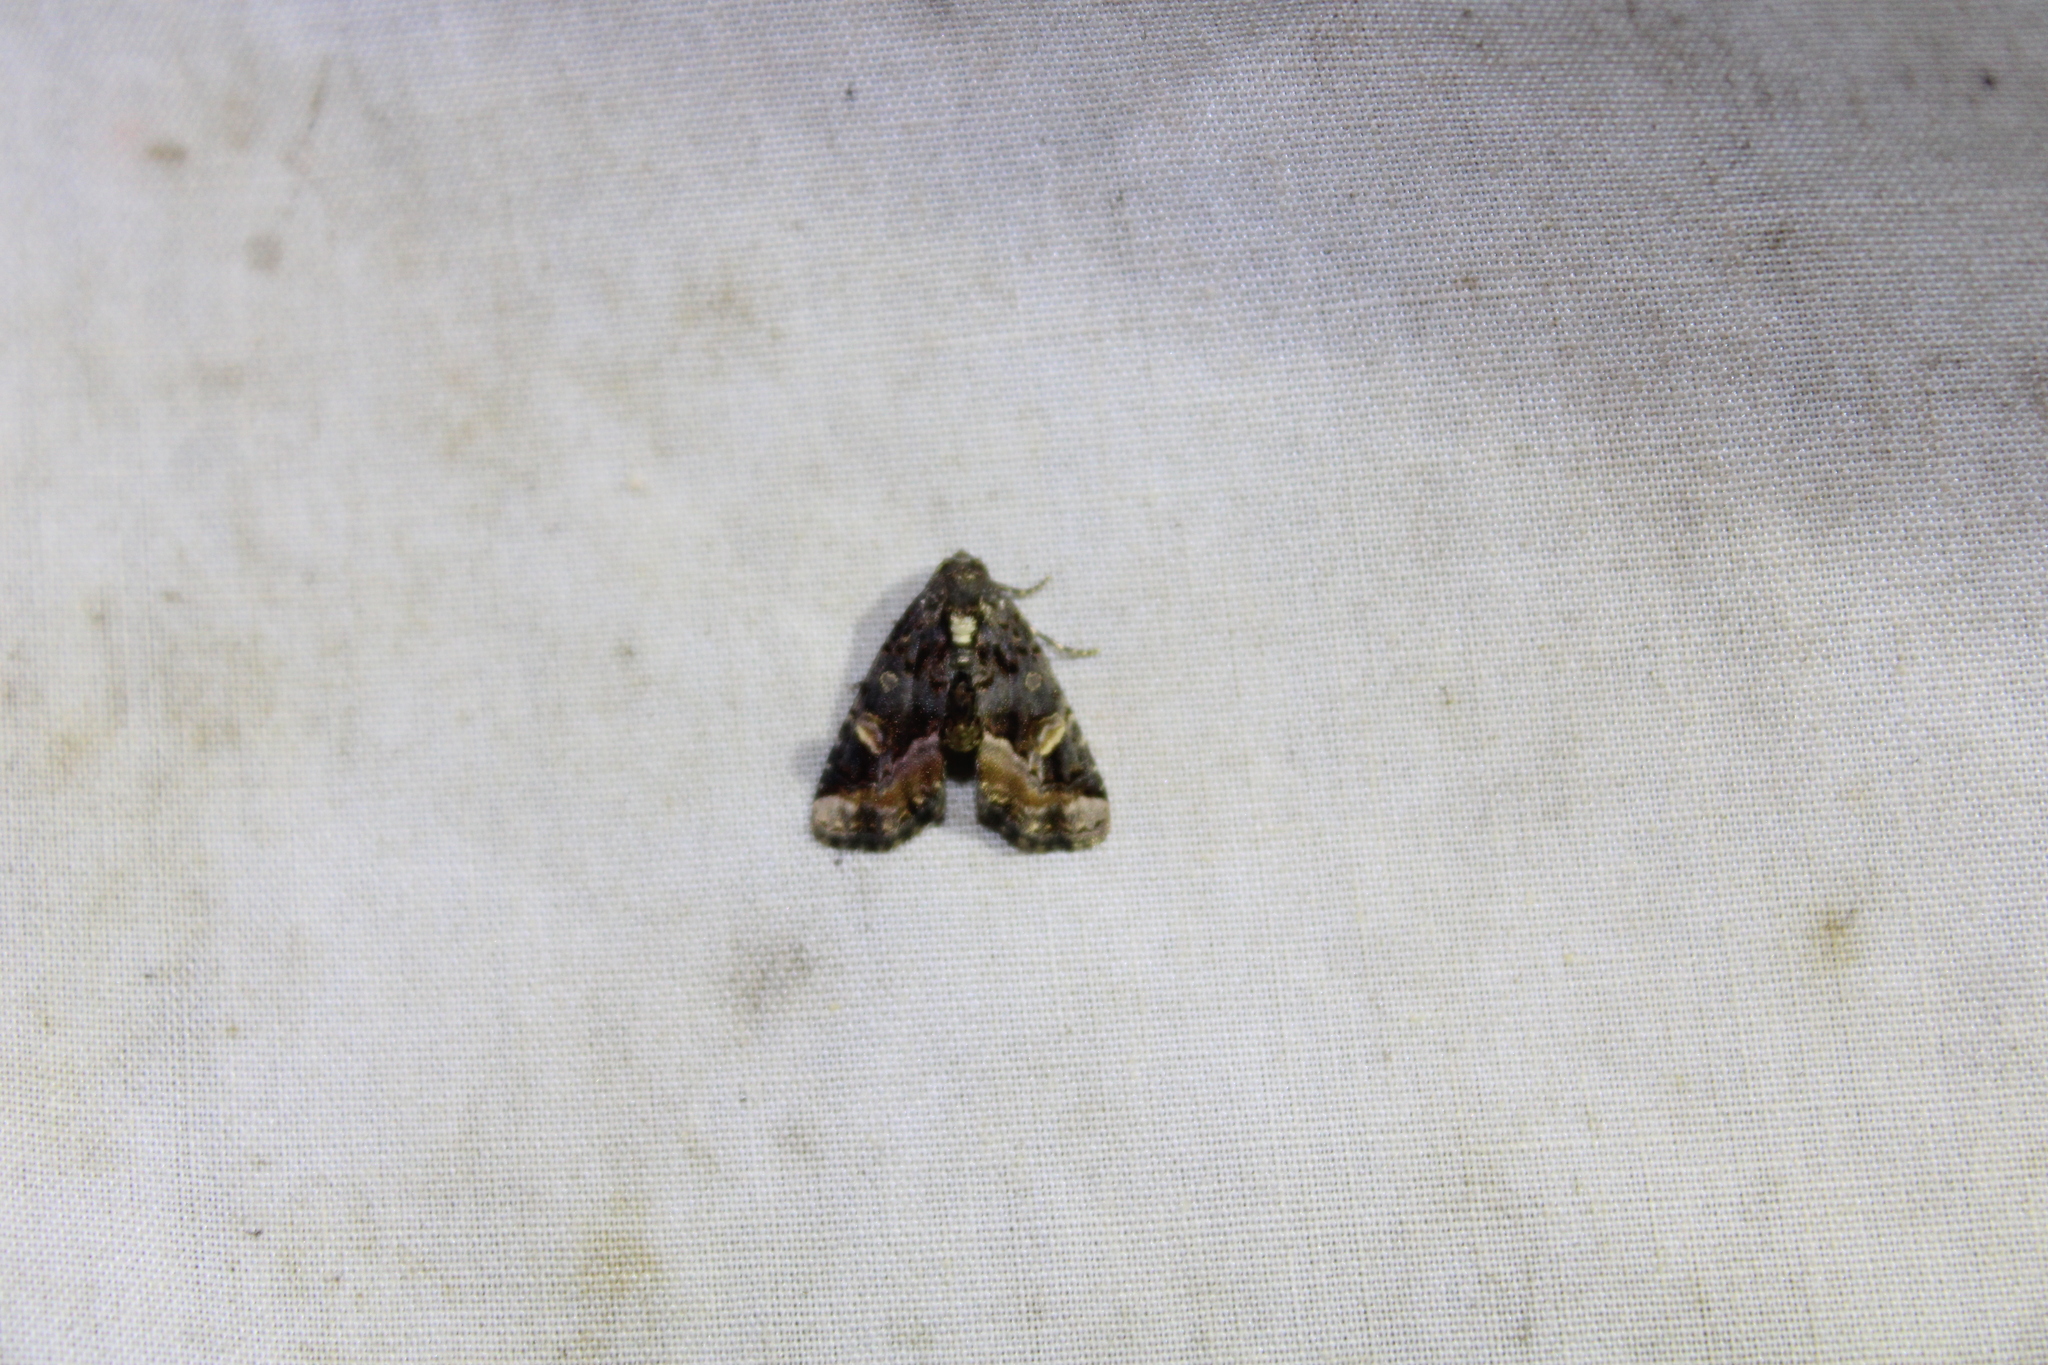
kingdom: Animalia
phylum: Arthropoda
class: Insecta
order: Lepidoptera
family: Noctuidae
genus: Homophoberia
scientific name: Homophoberia apicosa
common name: Black wedge-spot
